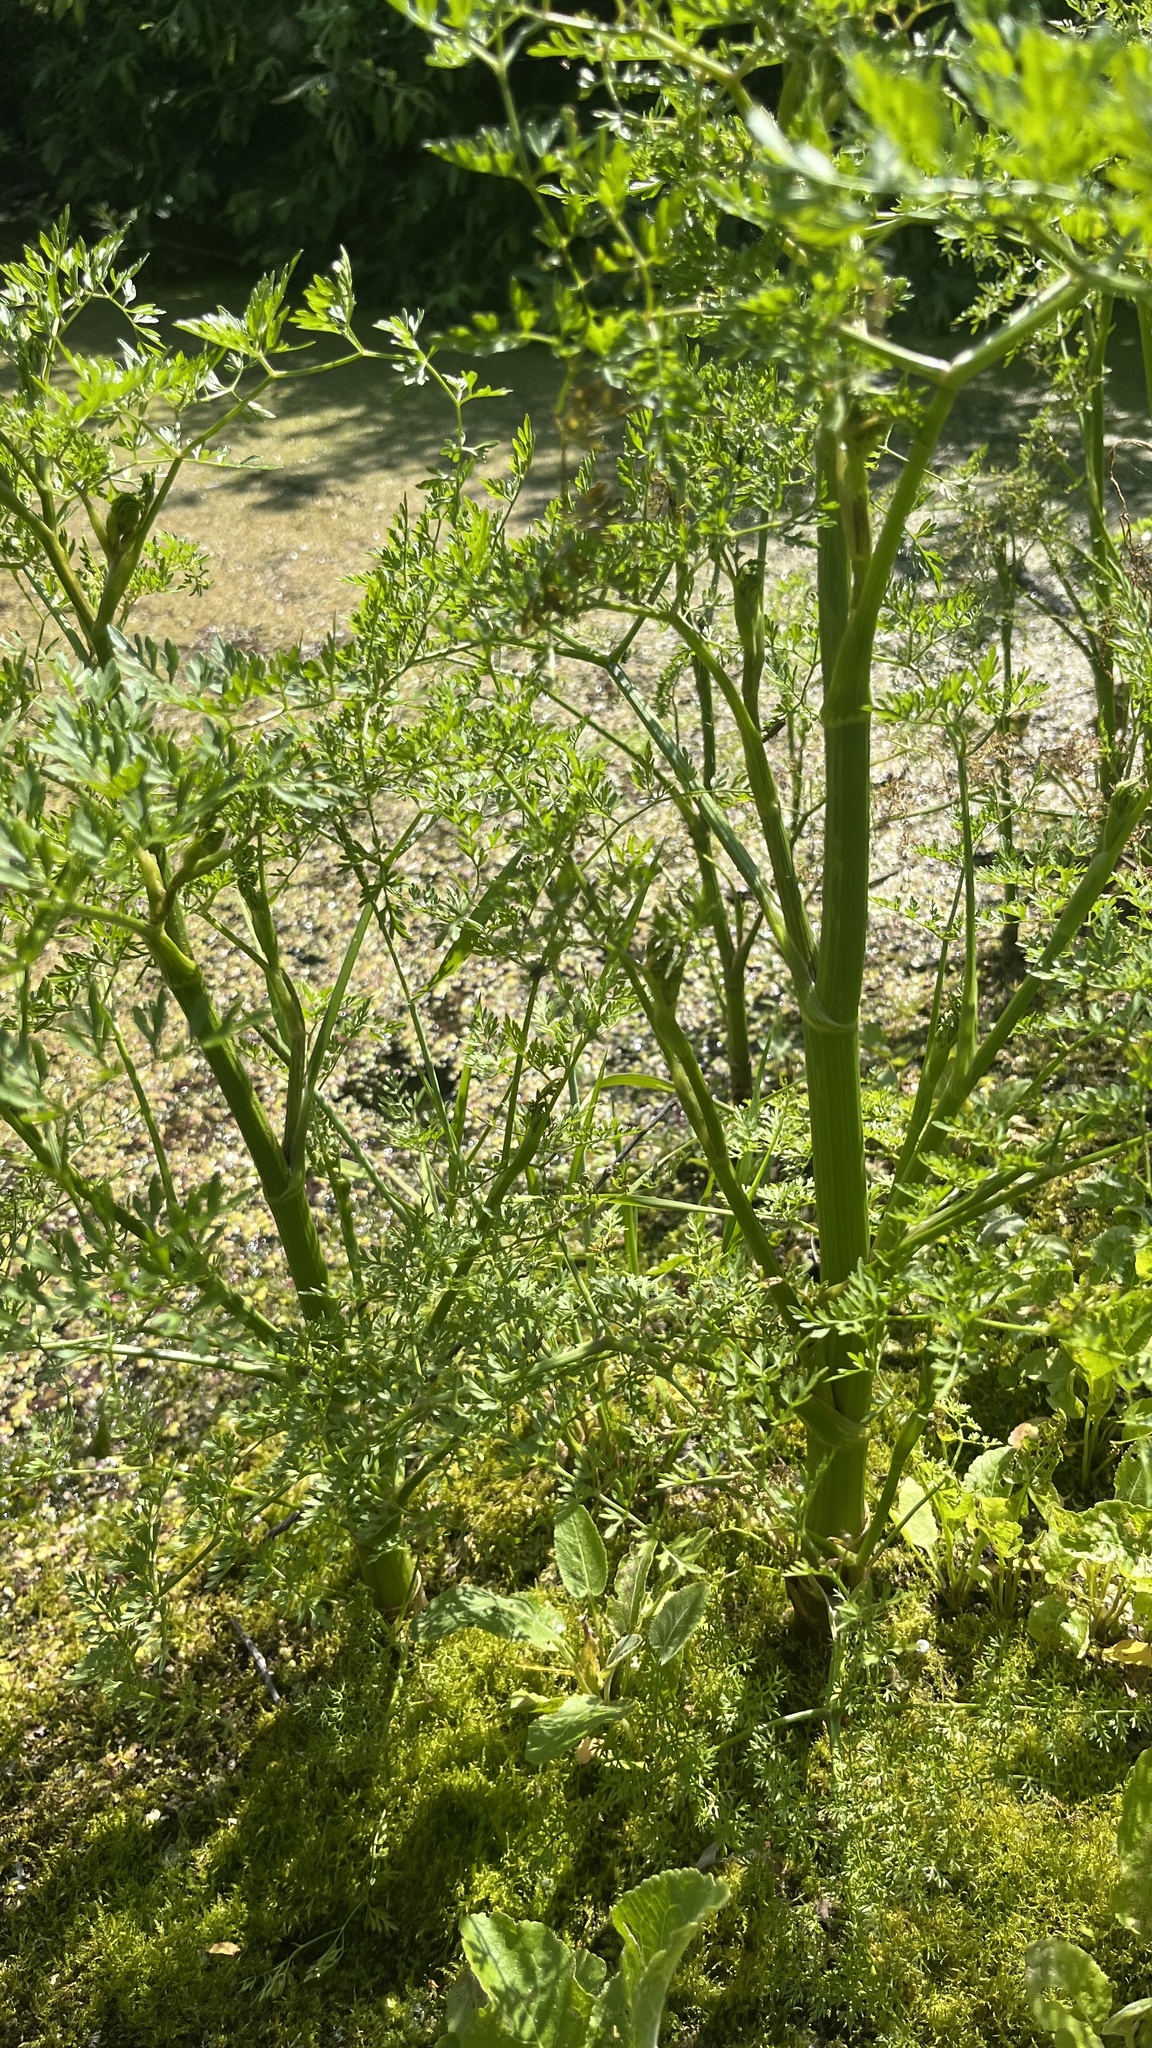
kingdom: Plantae
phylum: Tracheophyta
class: Magnoliopsida
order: Apiales
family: Apiaceae
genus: Oenanthe
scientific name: Oenanthe aquatica
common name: Fine-leaved water-dropwort
